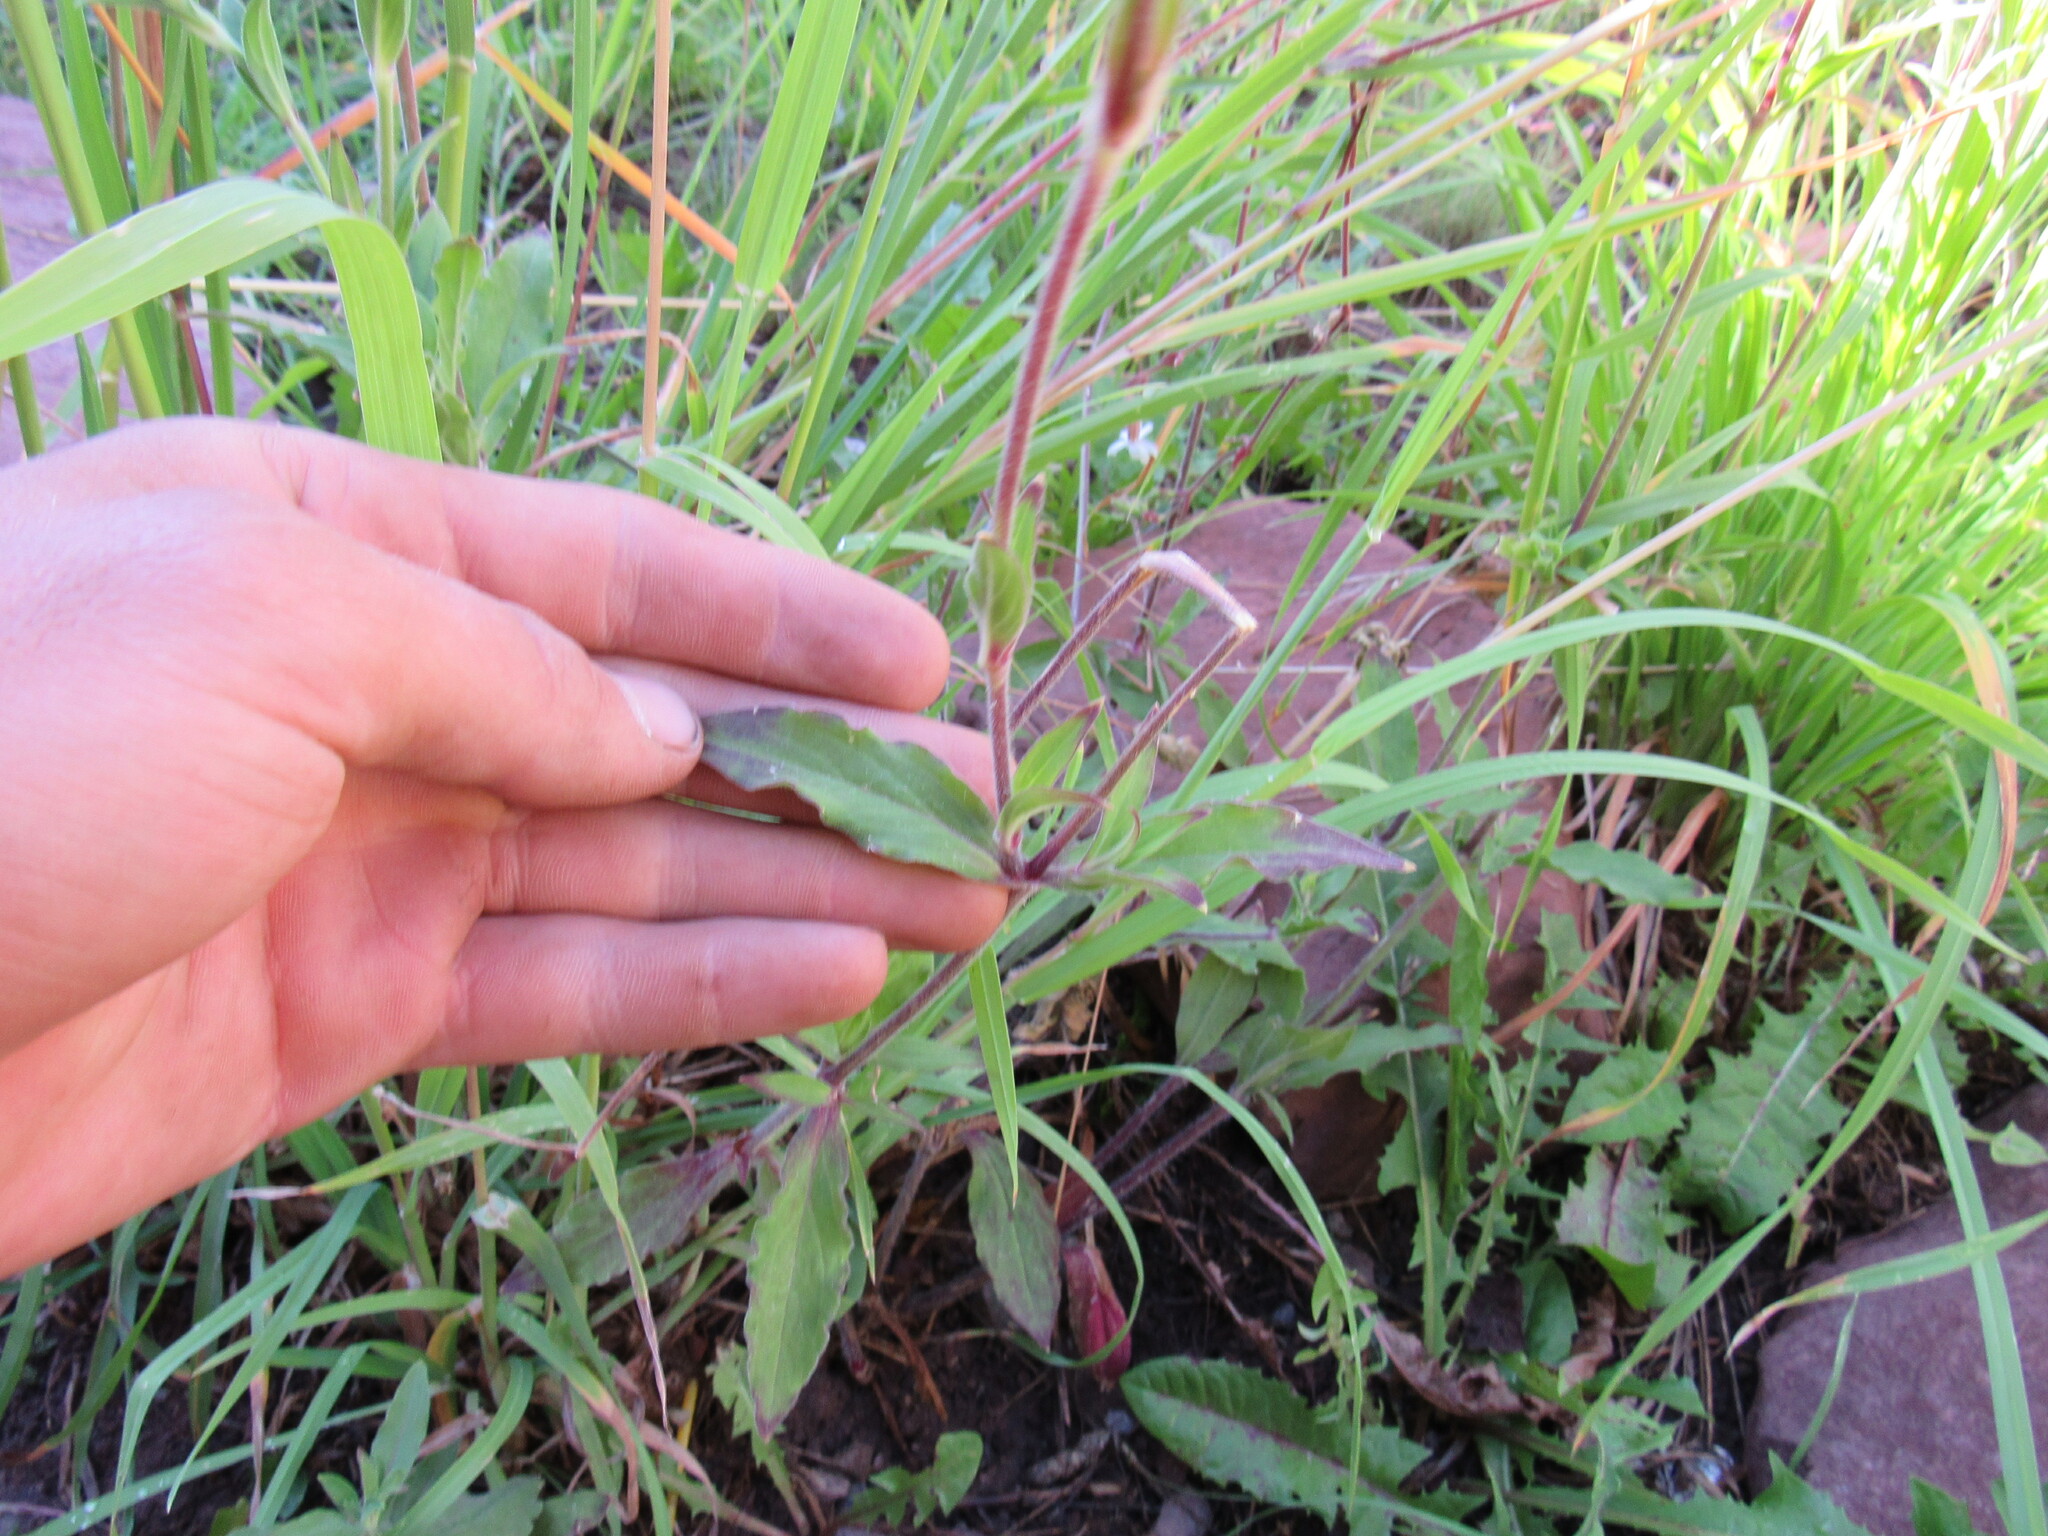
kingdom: Plantae
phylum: Tracheophyta
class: Magnoliopsida
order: Caryophyllales
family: Caryophyllaceae
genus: Silene
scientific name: Silene latifolia
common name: White campion
